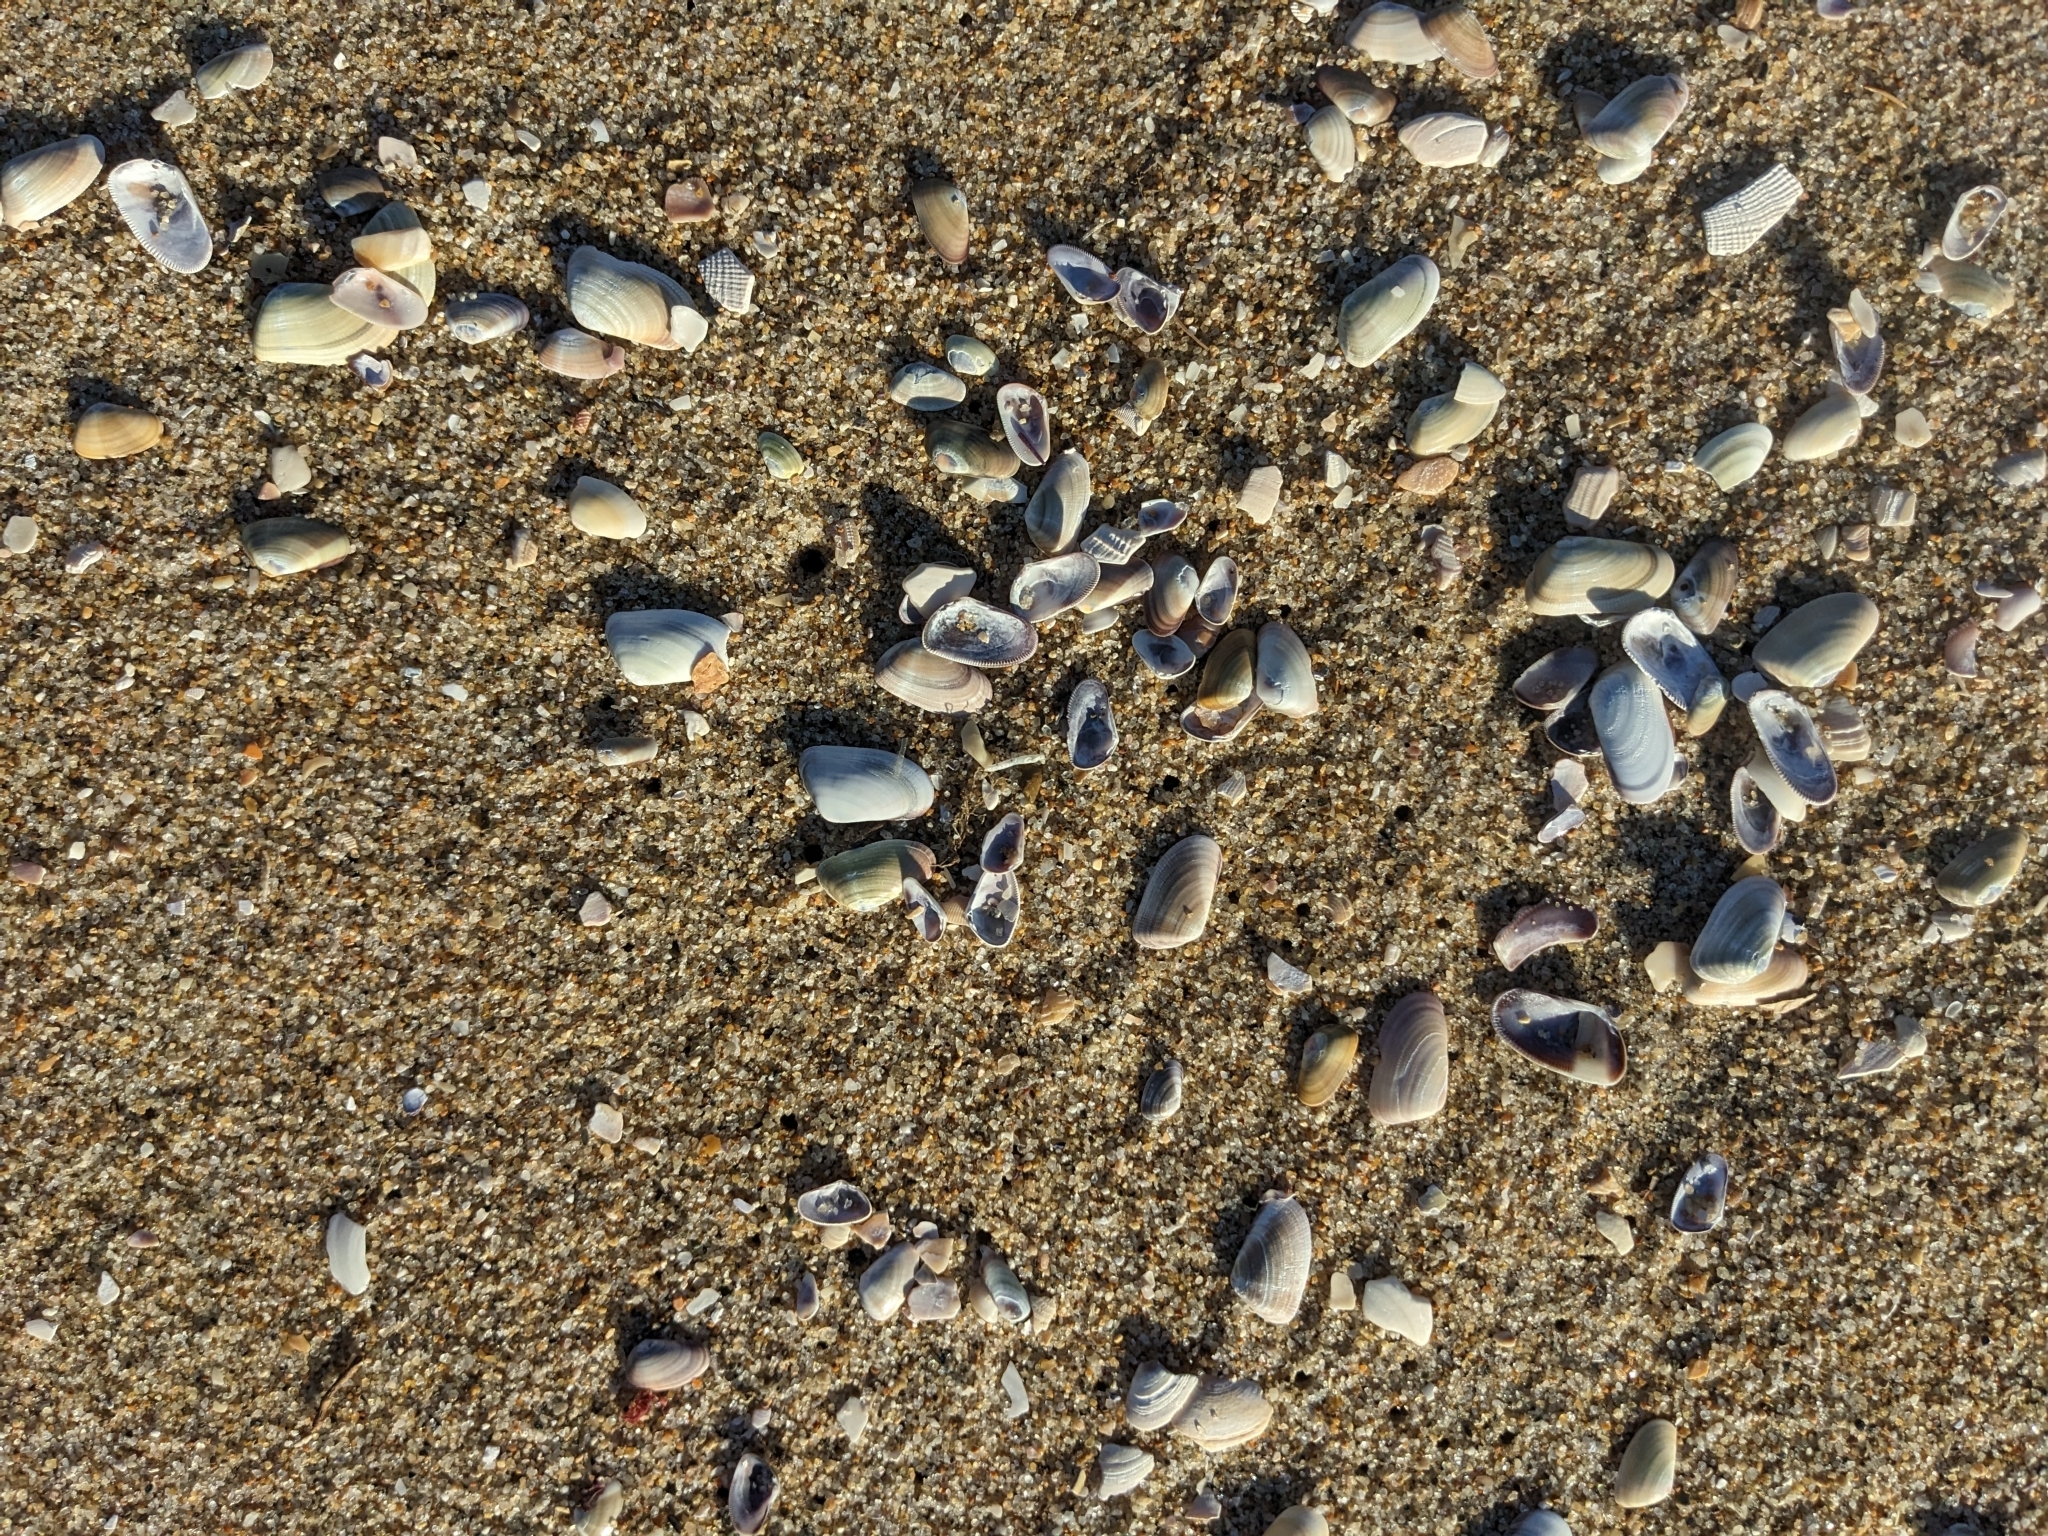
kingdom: Animalia
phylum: Mollusca
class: Bivalvia
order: Cardiida
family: Donacidae
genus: Donax
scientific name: Donax gouldii
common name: Gould beanclam
